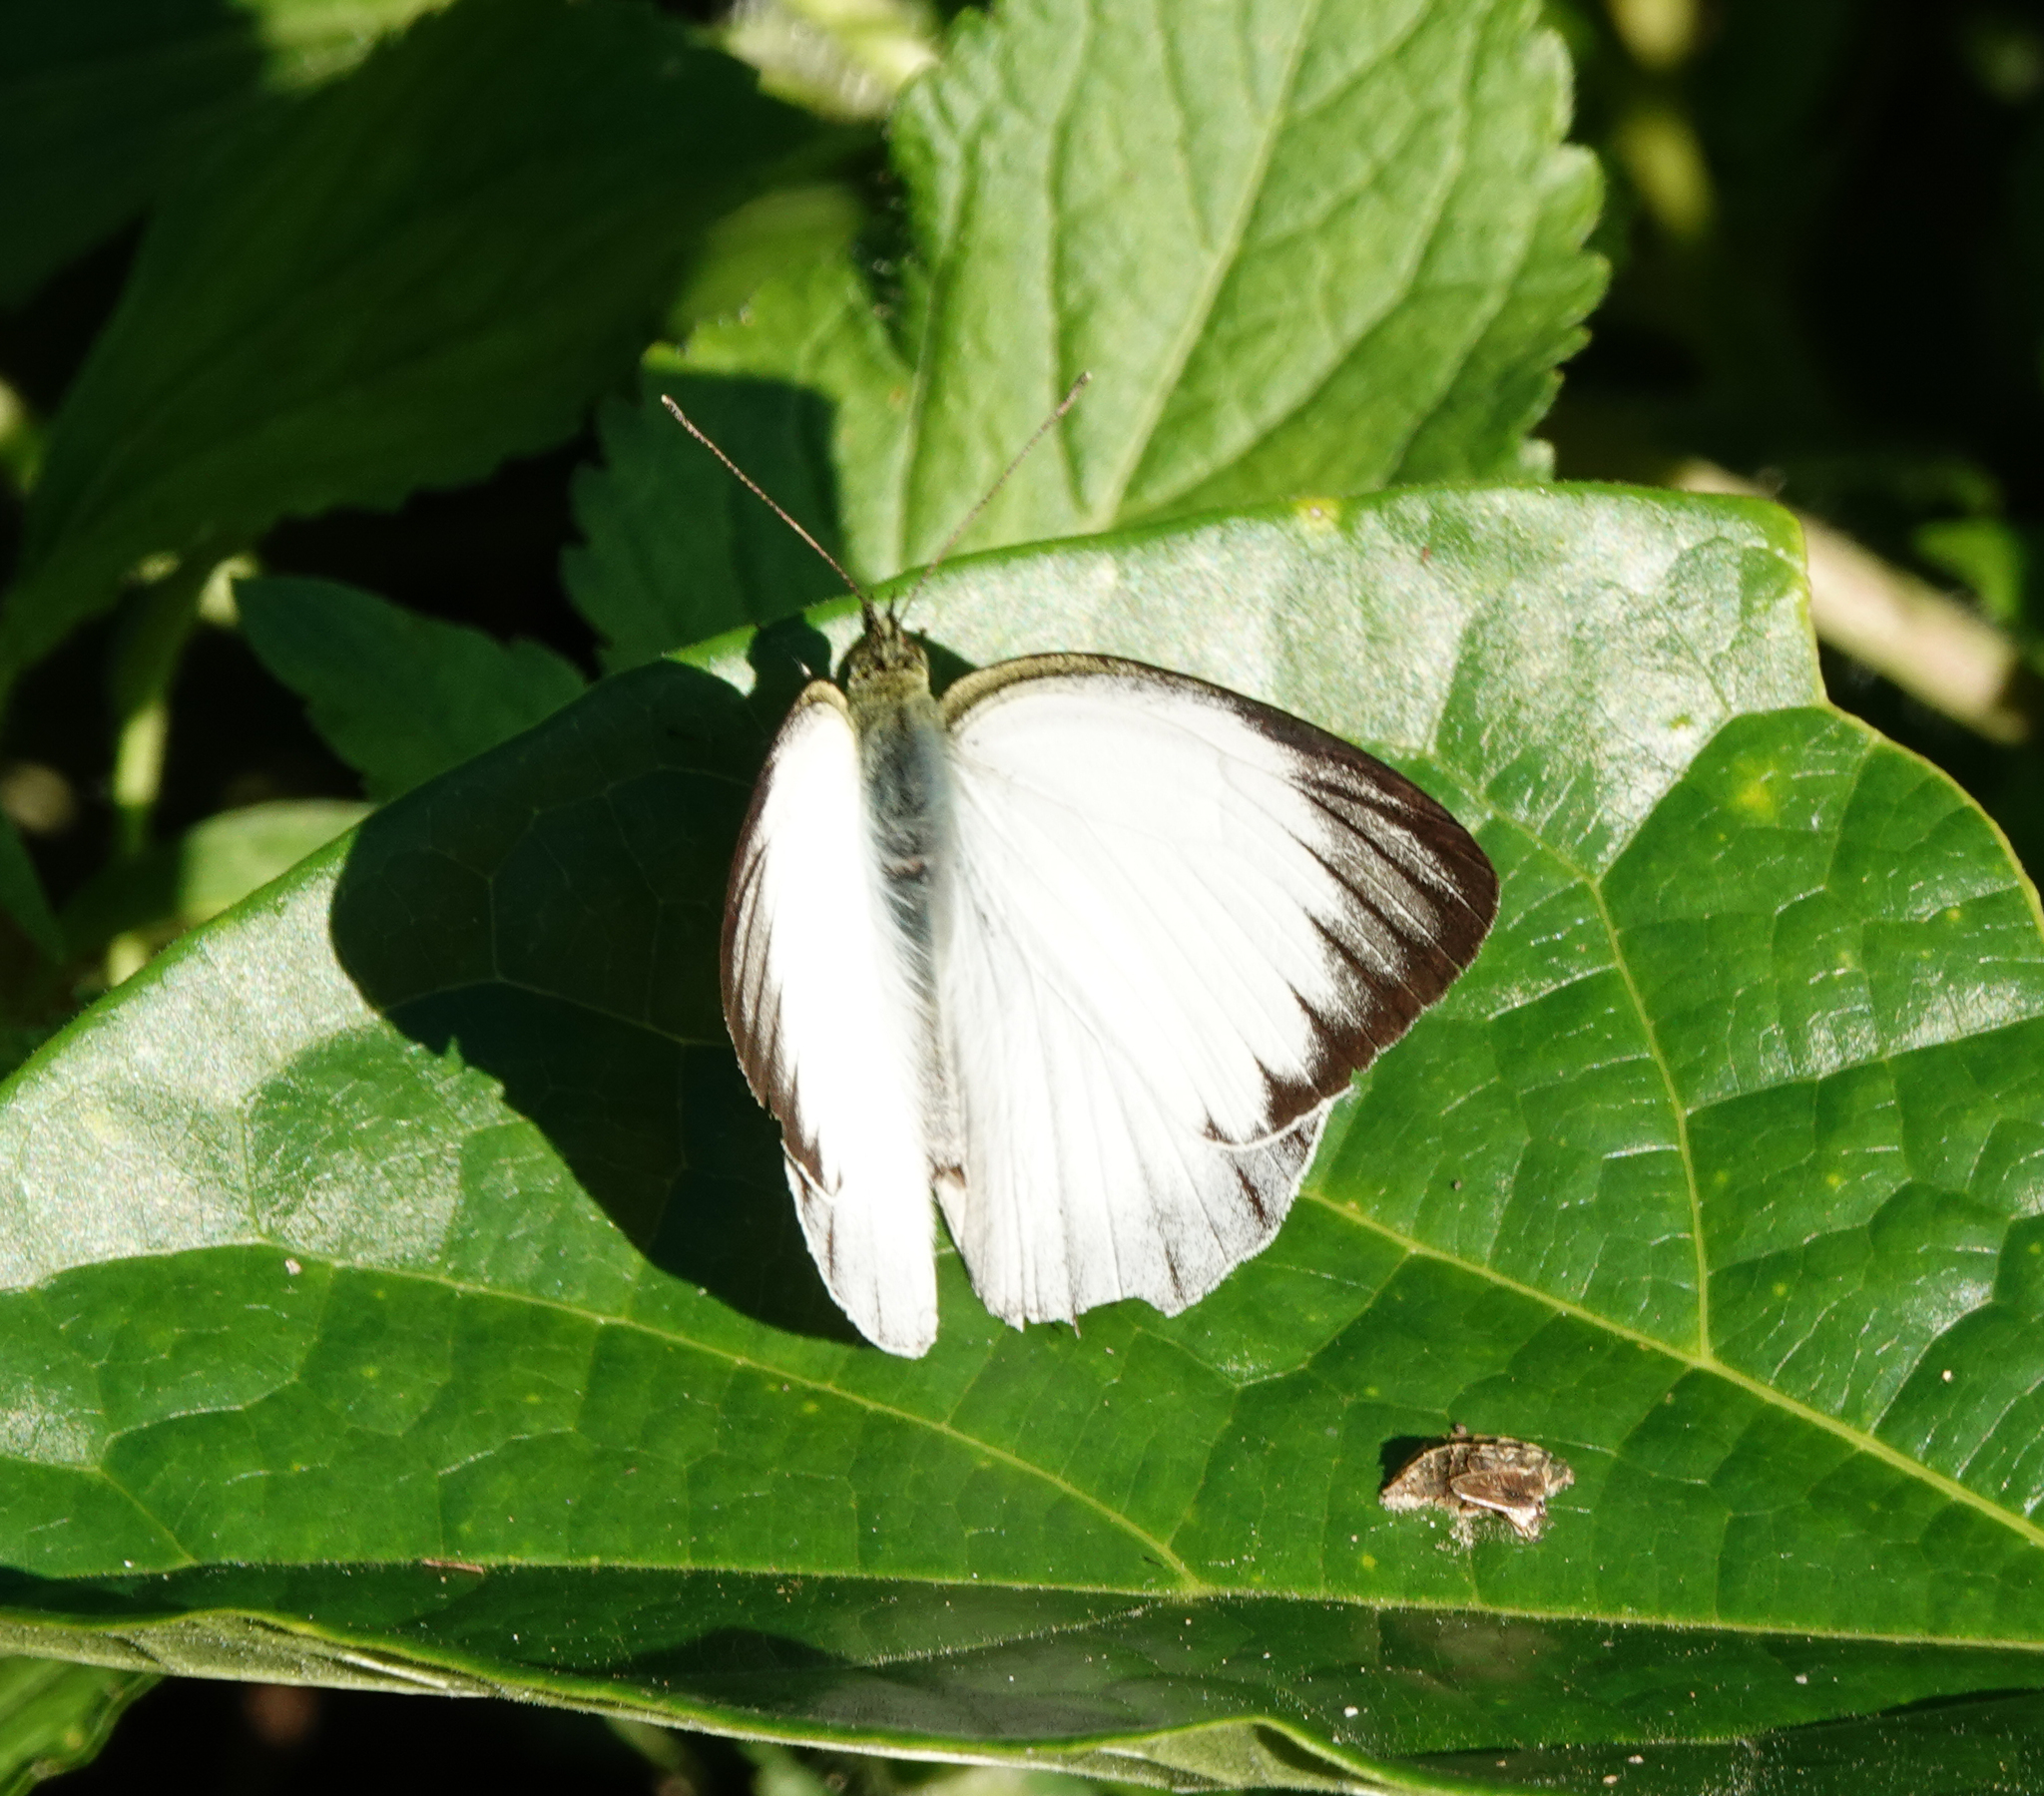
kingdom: Animalia
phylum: Arthropoda
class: Insecta
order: Lepidoptera
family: Pieridae
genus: Cepora
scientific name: Cepora nerissa
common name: Common gull
